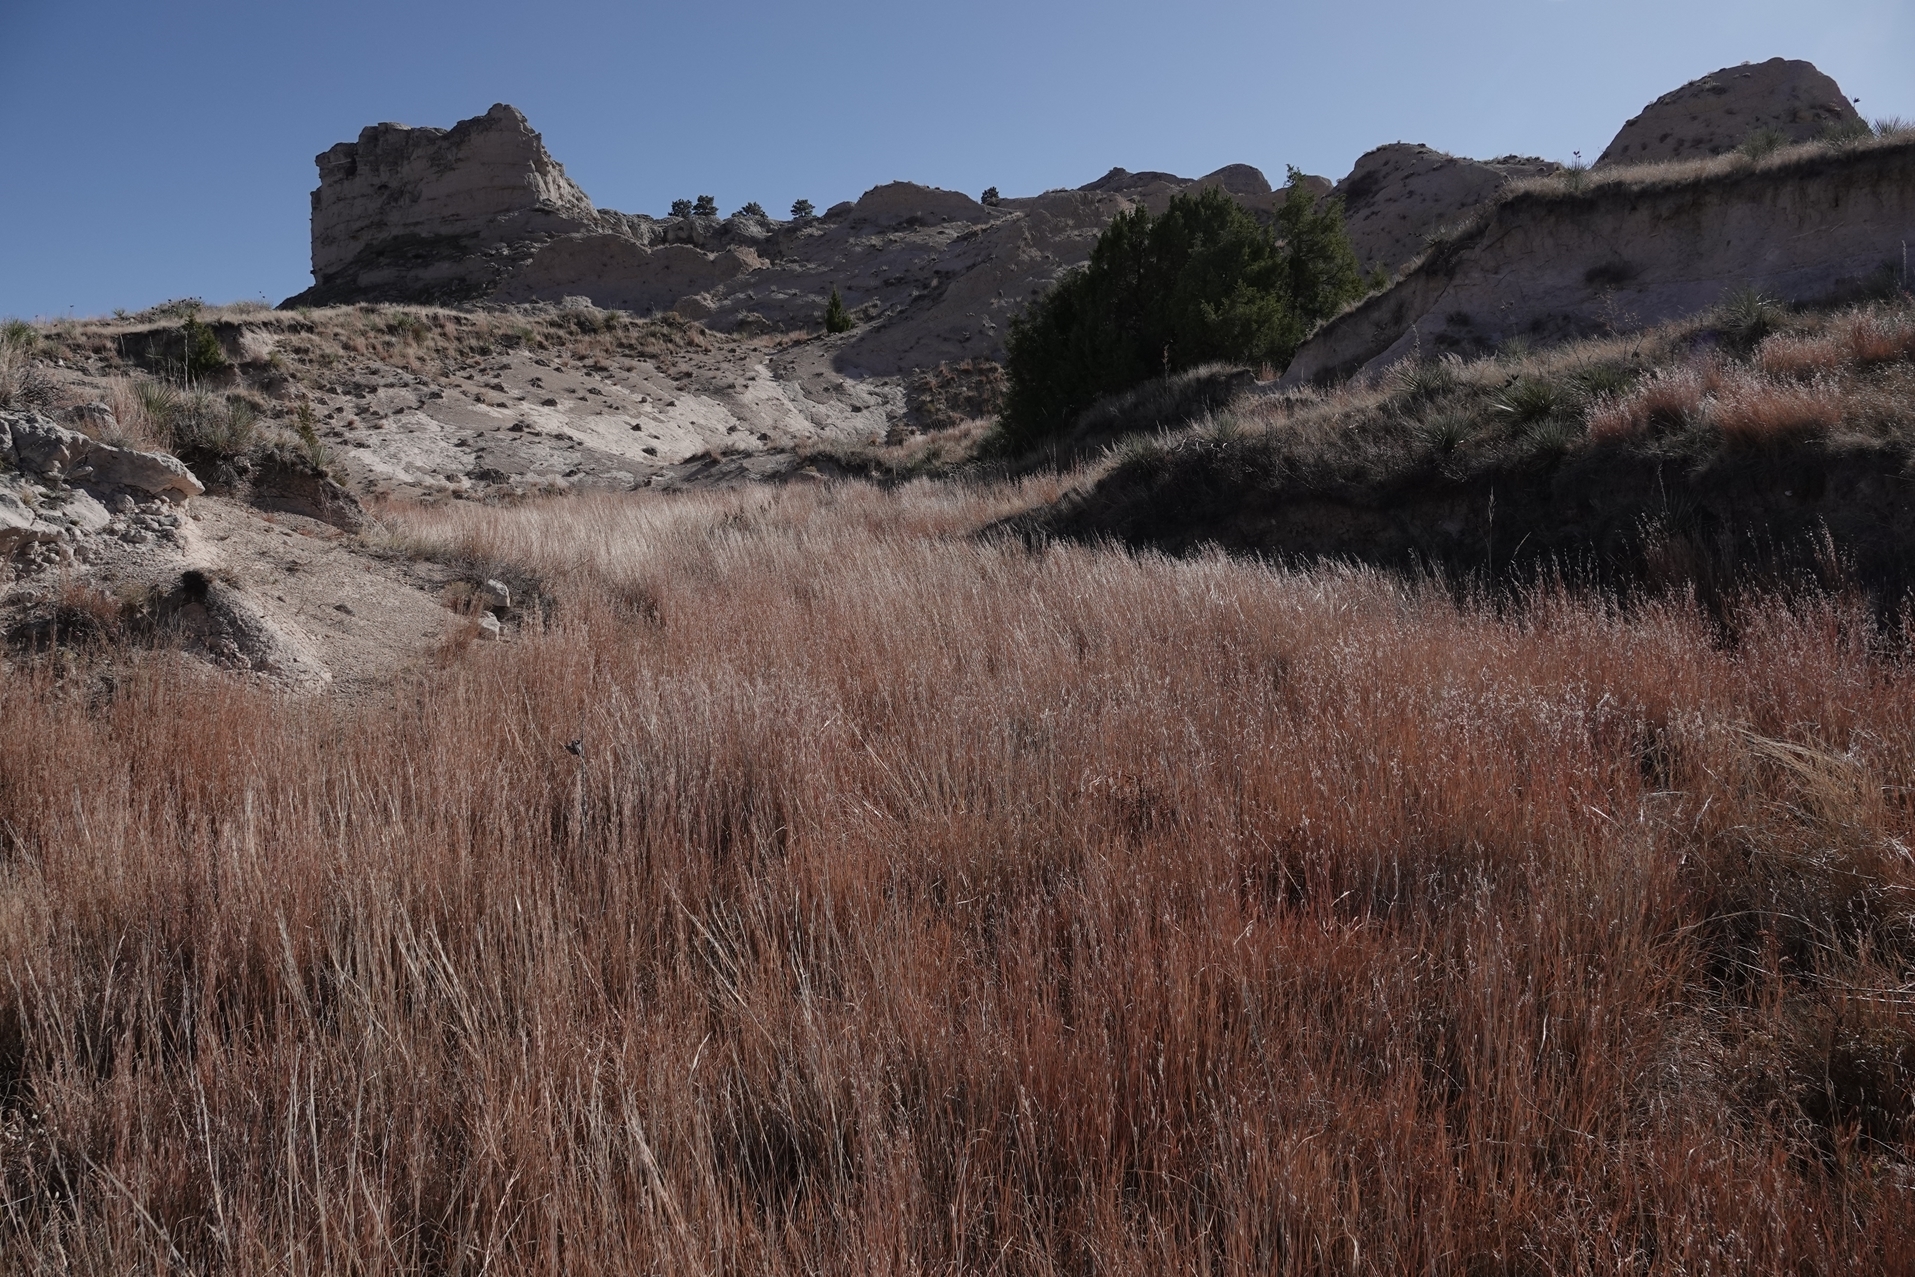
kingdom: Plantae
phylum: Tracheophyta
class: Liliopsida
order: Poales
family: Poaceae
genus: Schizachyrium
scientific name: Schizachyrium scoparium
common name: Little bluestem
